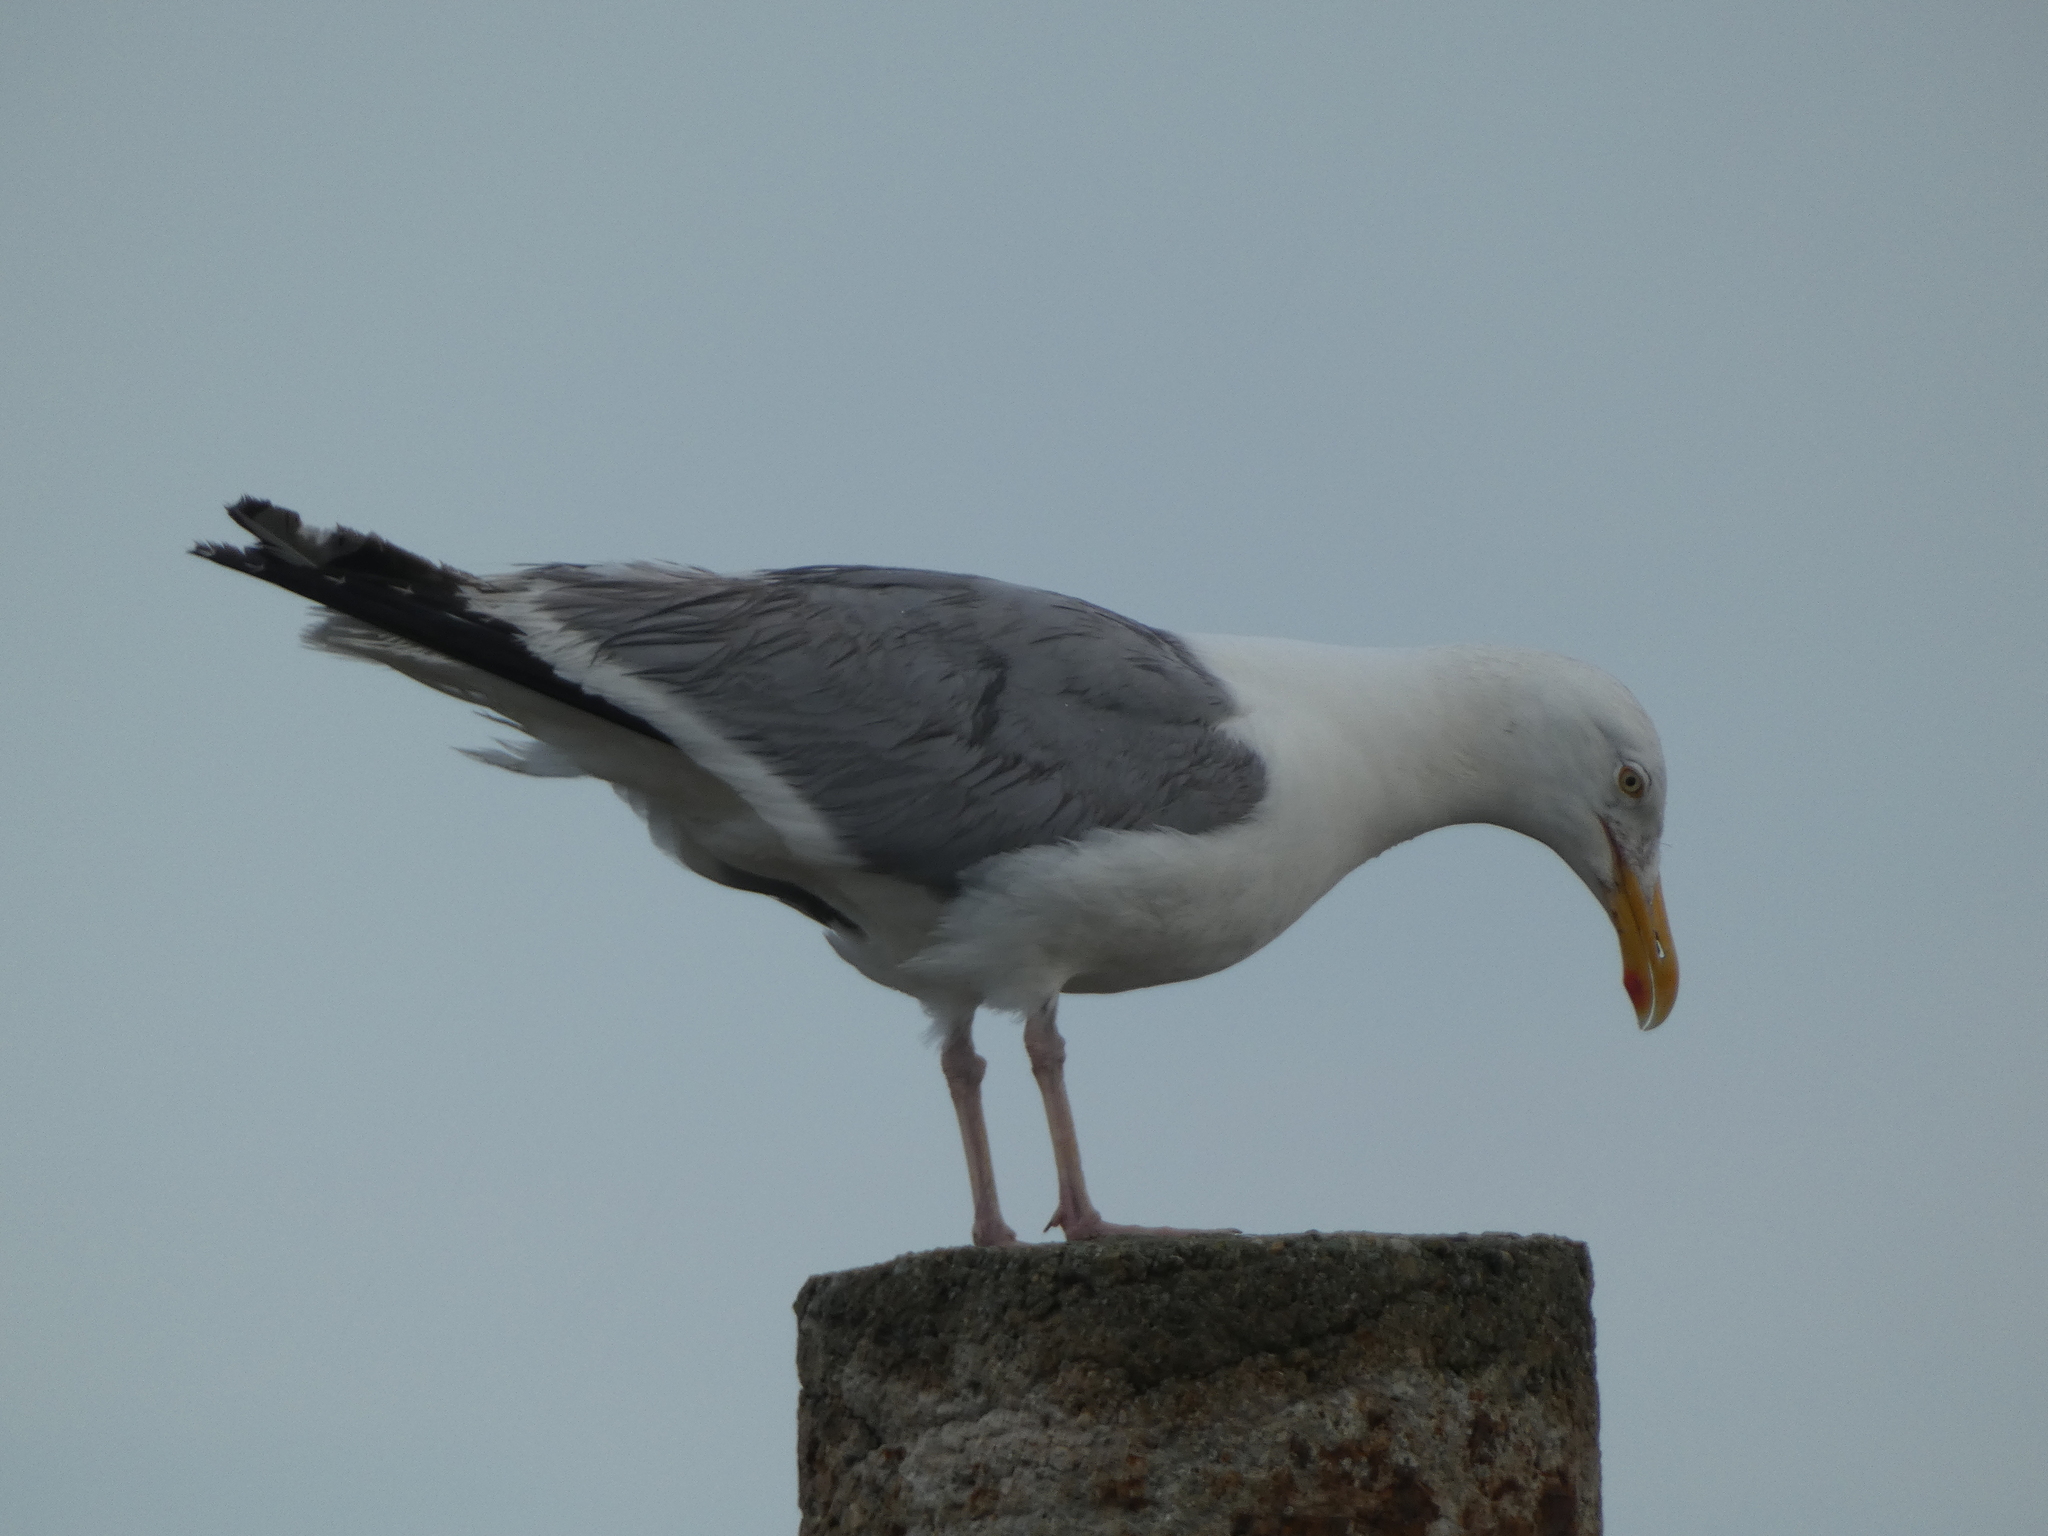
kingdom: Animalia
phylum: Chordata
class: Aves
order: Charadriiformes
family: Laridae
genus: Larus
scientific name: Larus argentatus
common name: Herring gull
